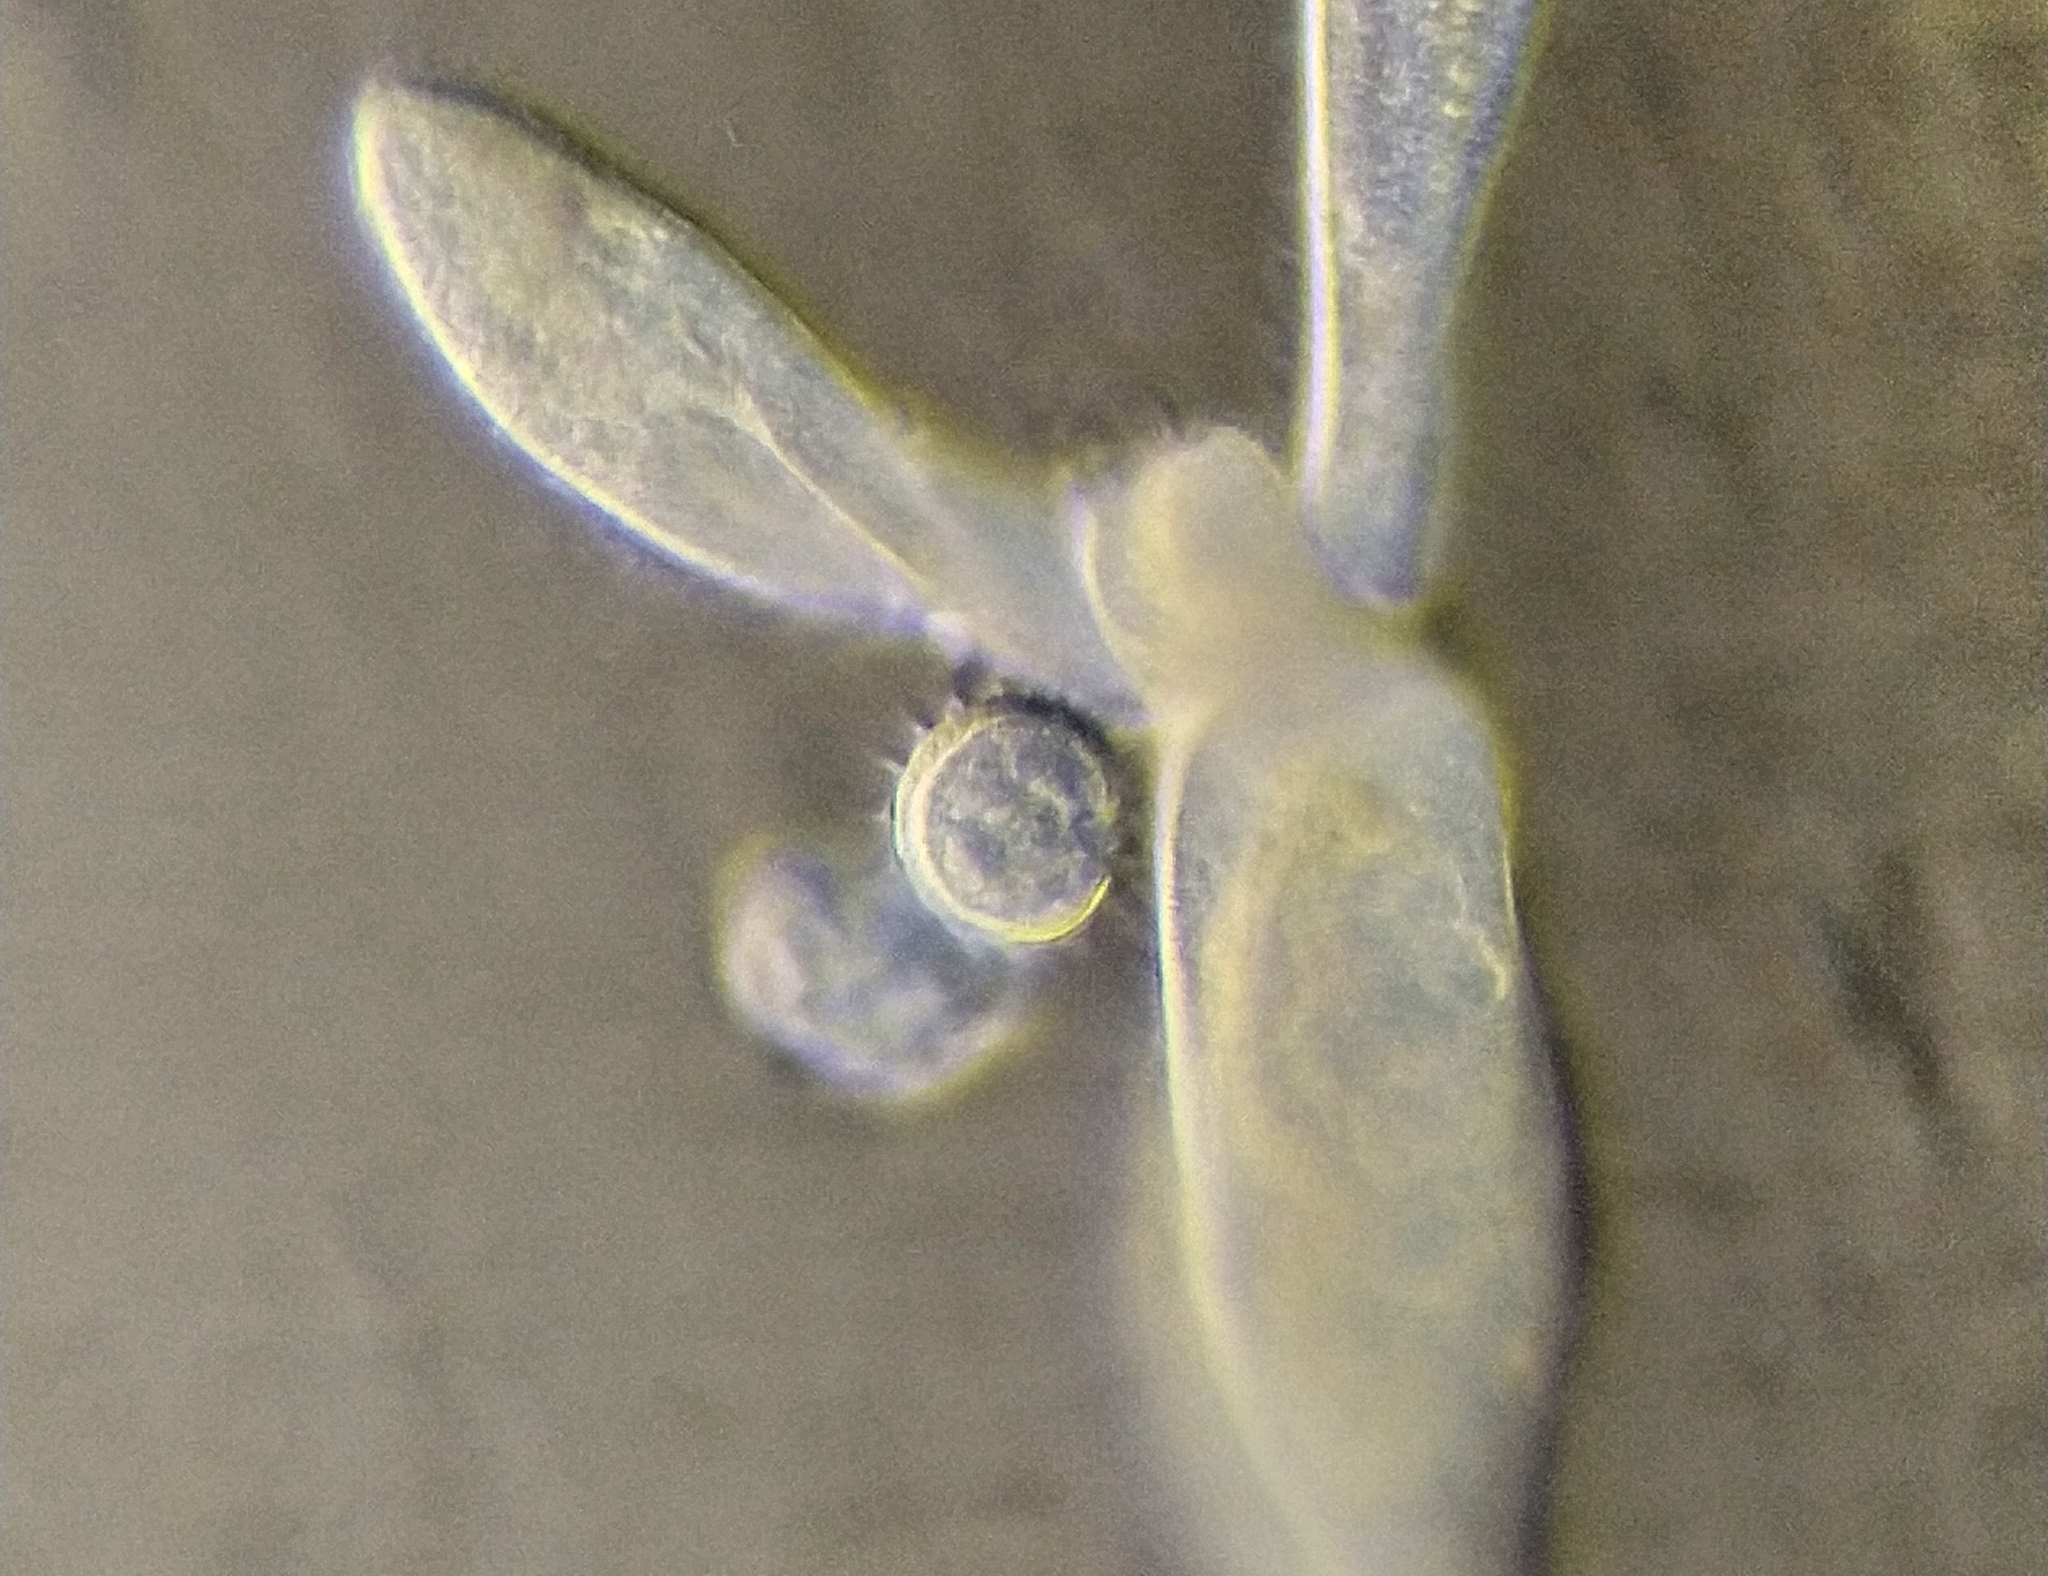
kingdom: Chromista
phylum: Ciliophora
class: Oligohymenophorea
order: Hymenostomatida
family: Urocentridae
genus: Urocentrum
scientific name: Urocentrum turbo
